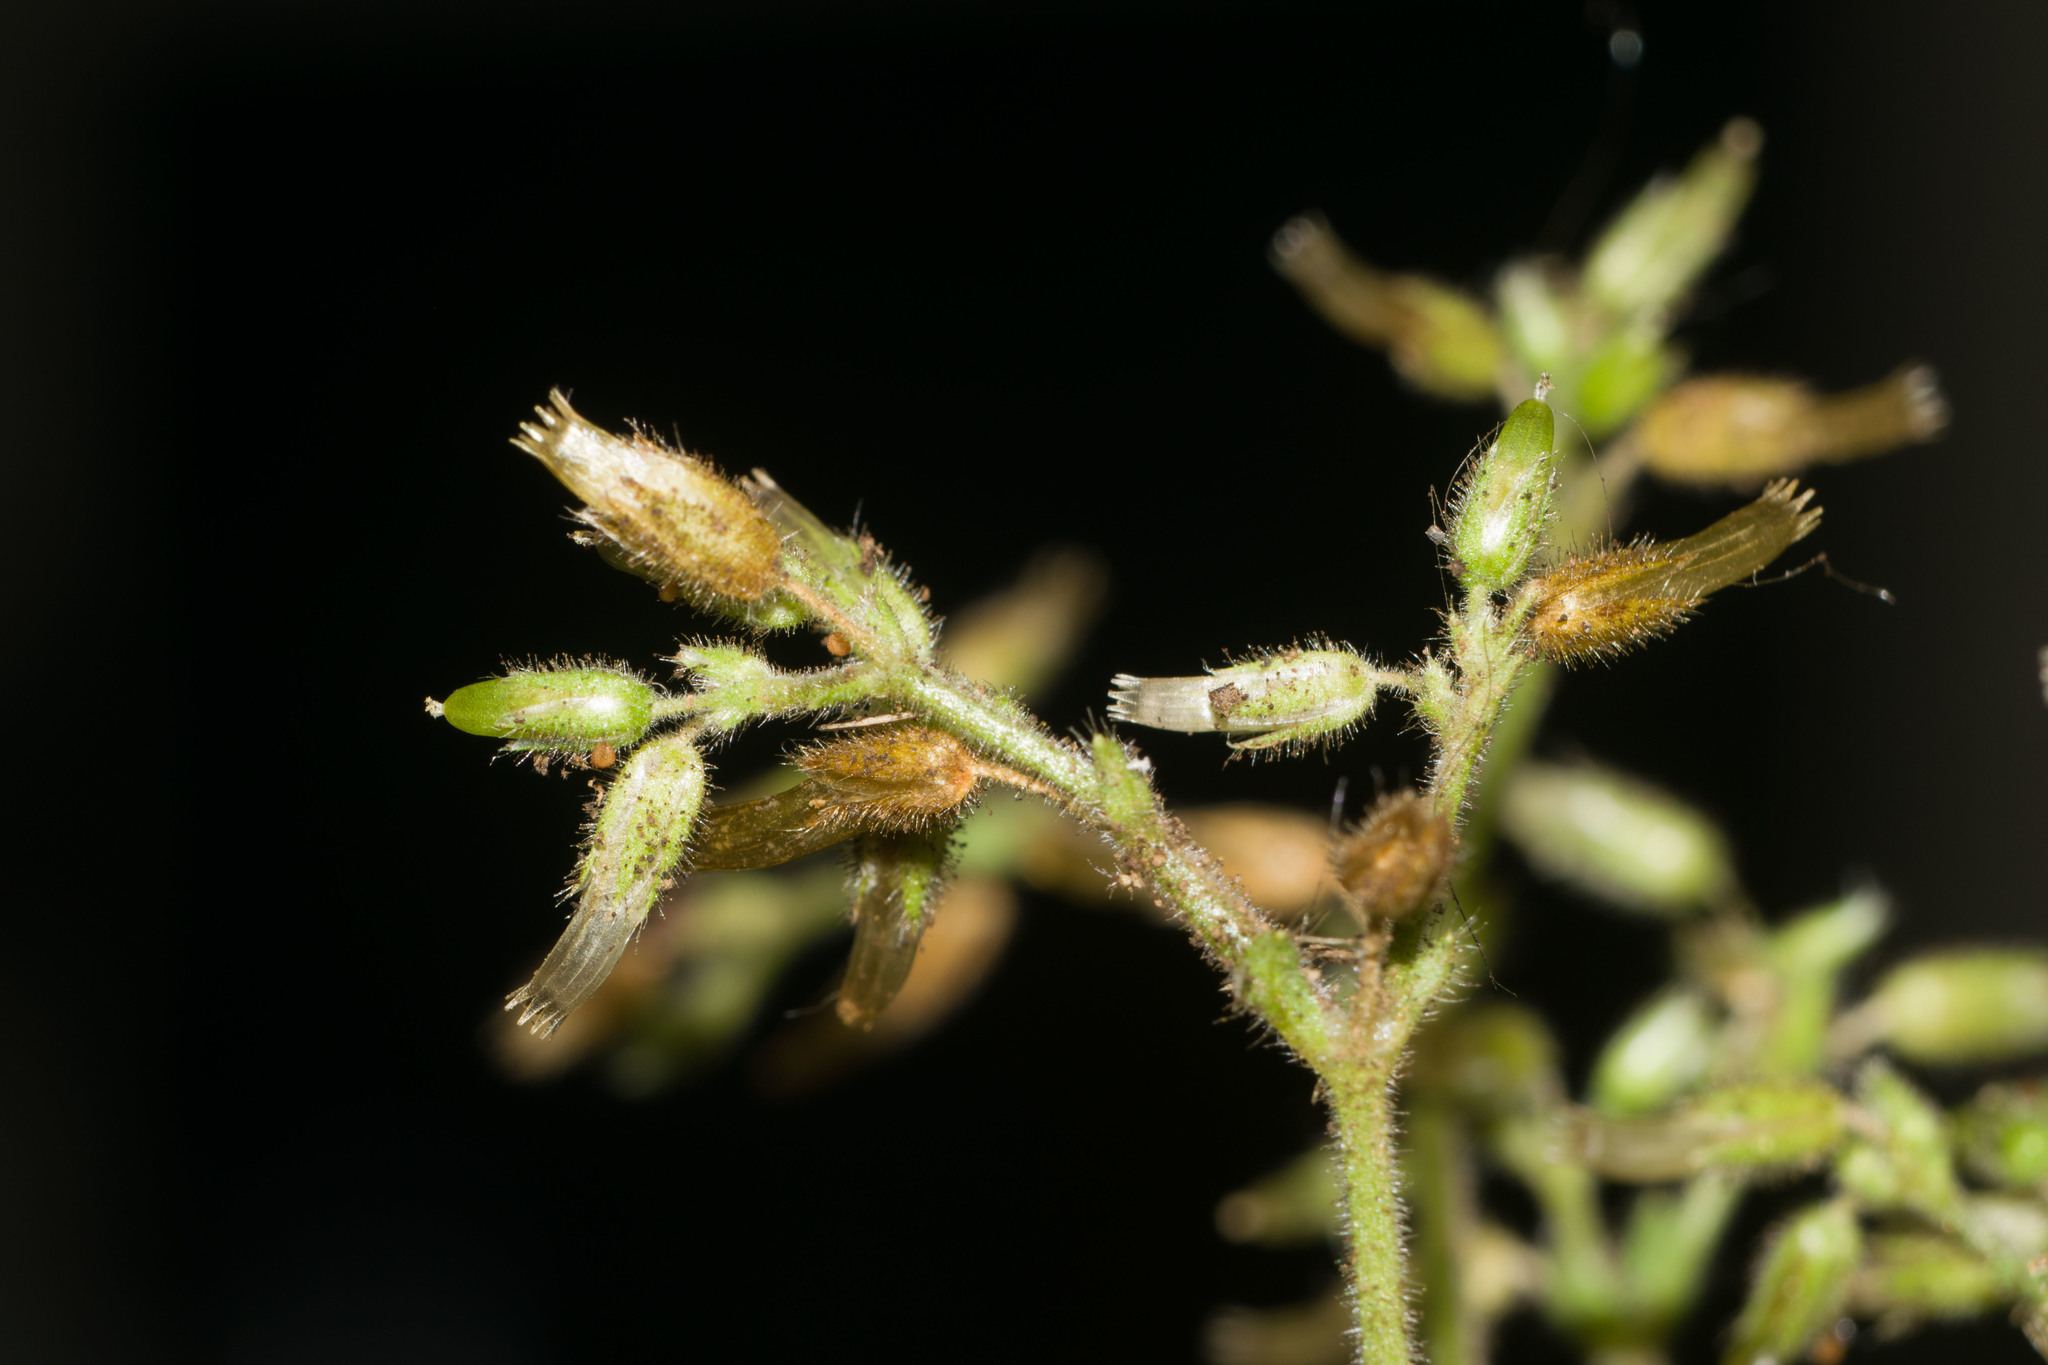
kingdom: Plantae
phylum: Tracheophyta
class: Magnoliopsida
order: Caryophyllales
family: Caryophyllaceae
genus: Cerastium
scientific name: Cerastium glomeratum
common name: Sticky chickweed
